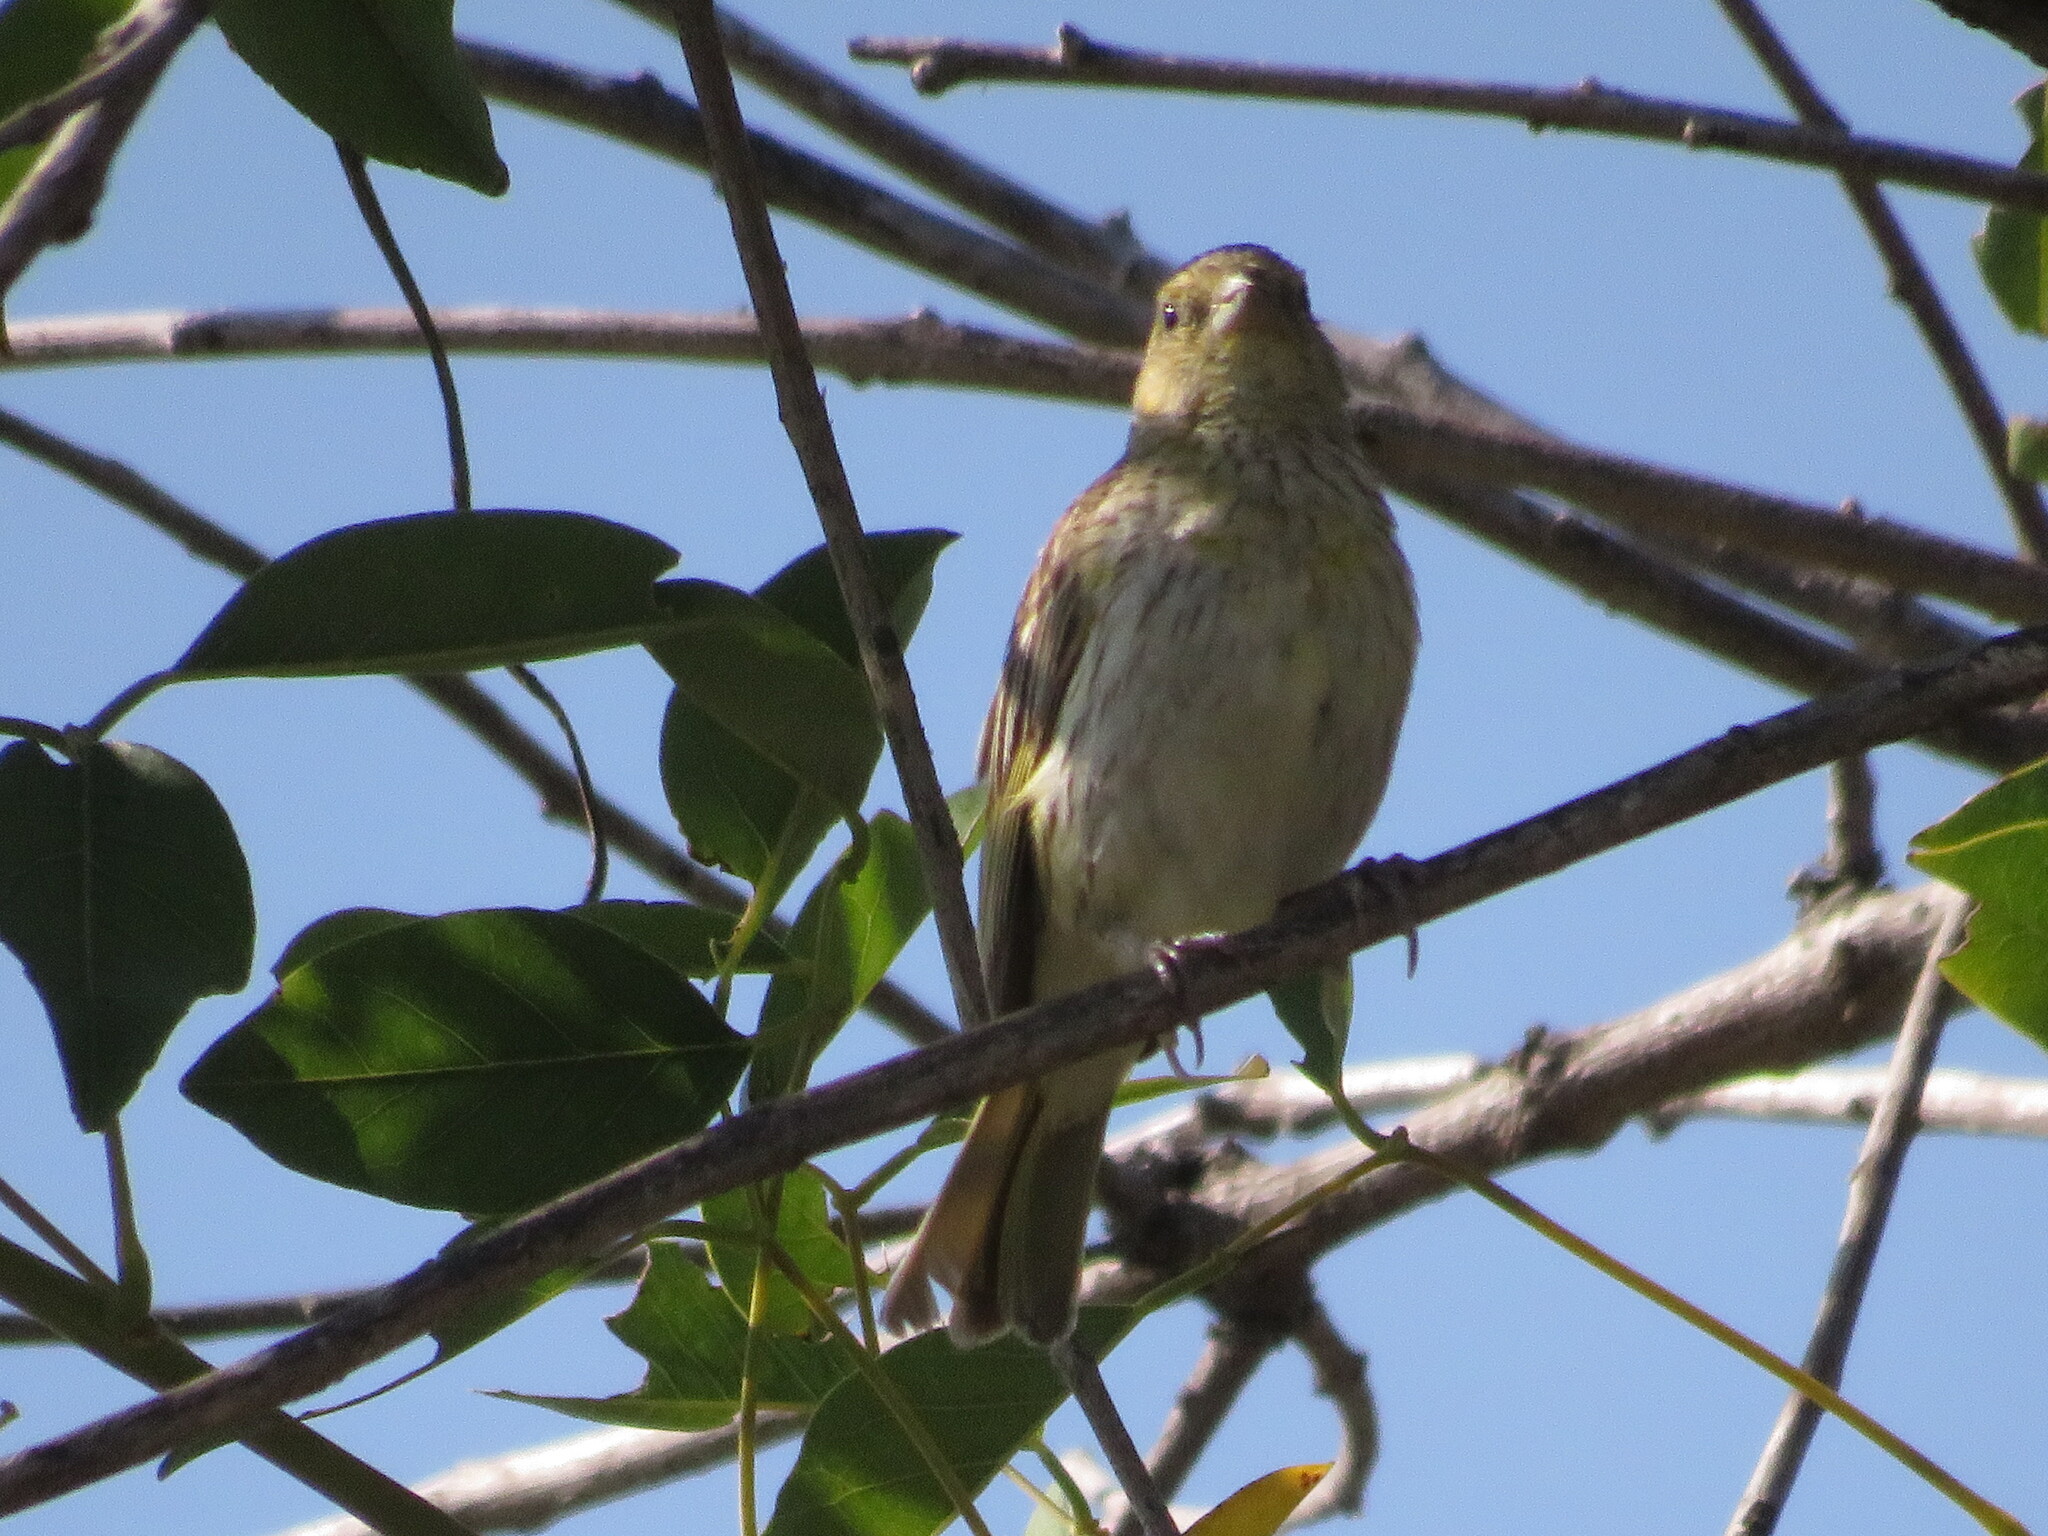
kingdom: Animalia
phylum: Chordata
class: Aves
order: Passeriformes
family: Thraupidae
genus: Sicalis
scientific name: Sicalis flaveola
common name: Saffron finch
